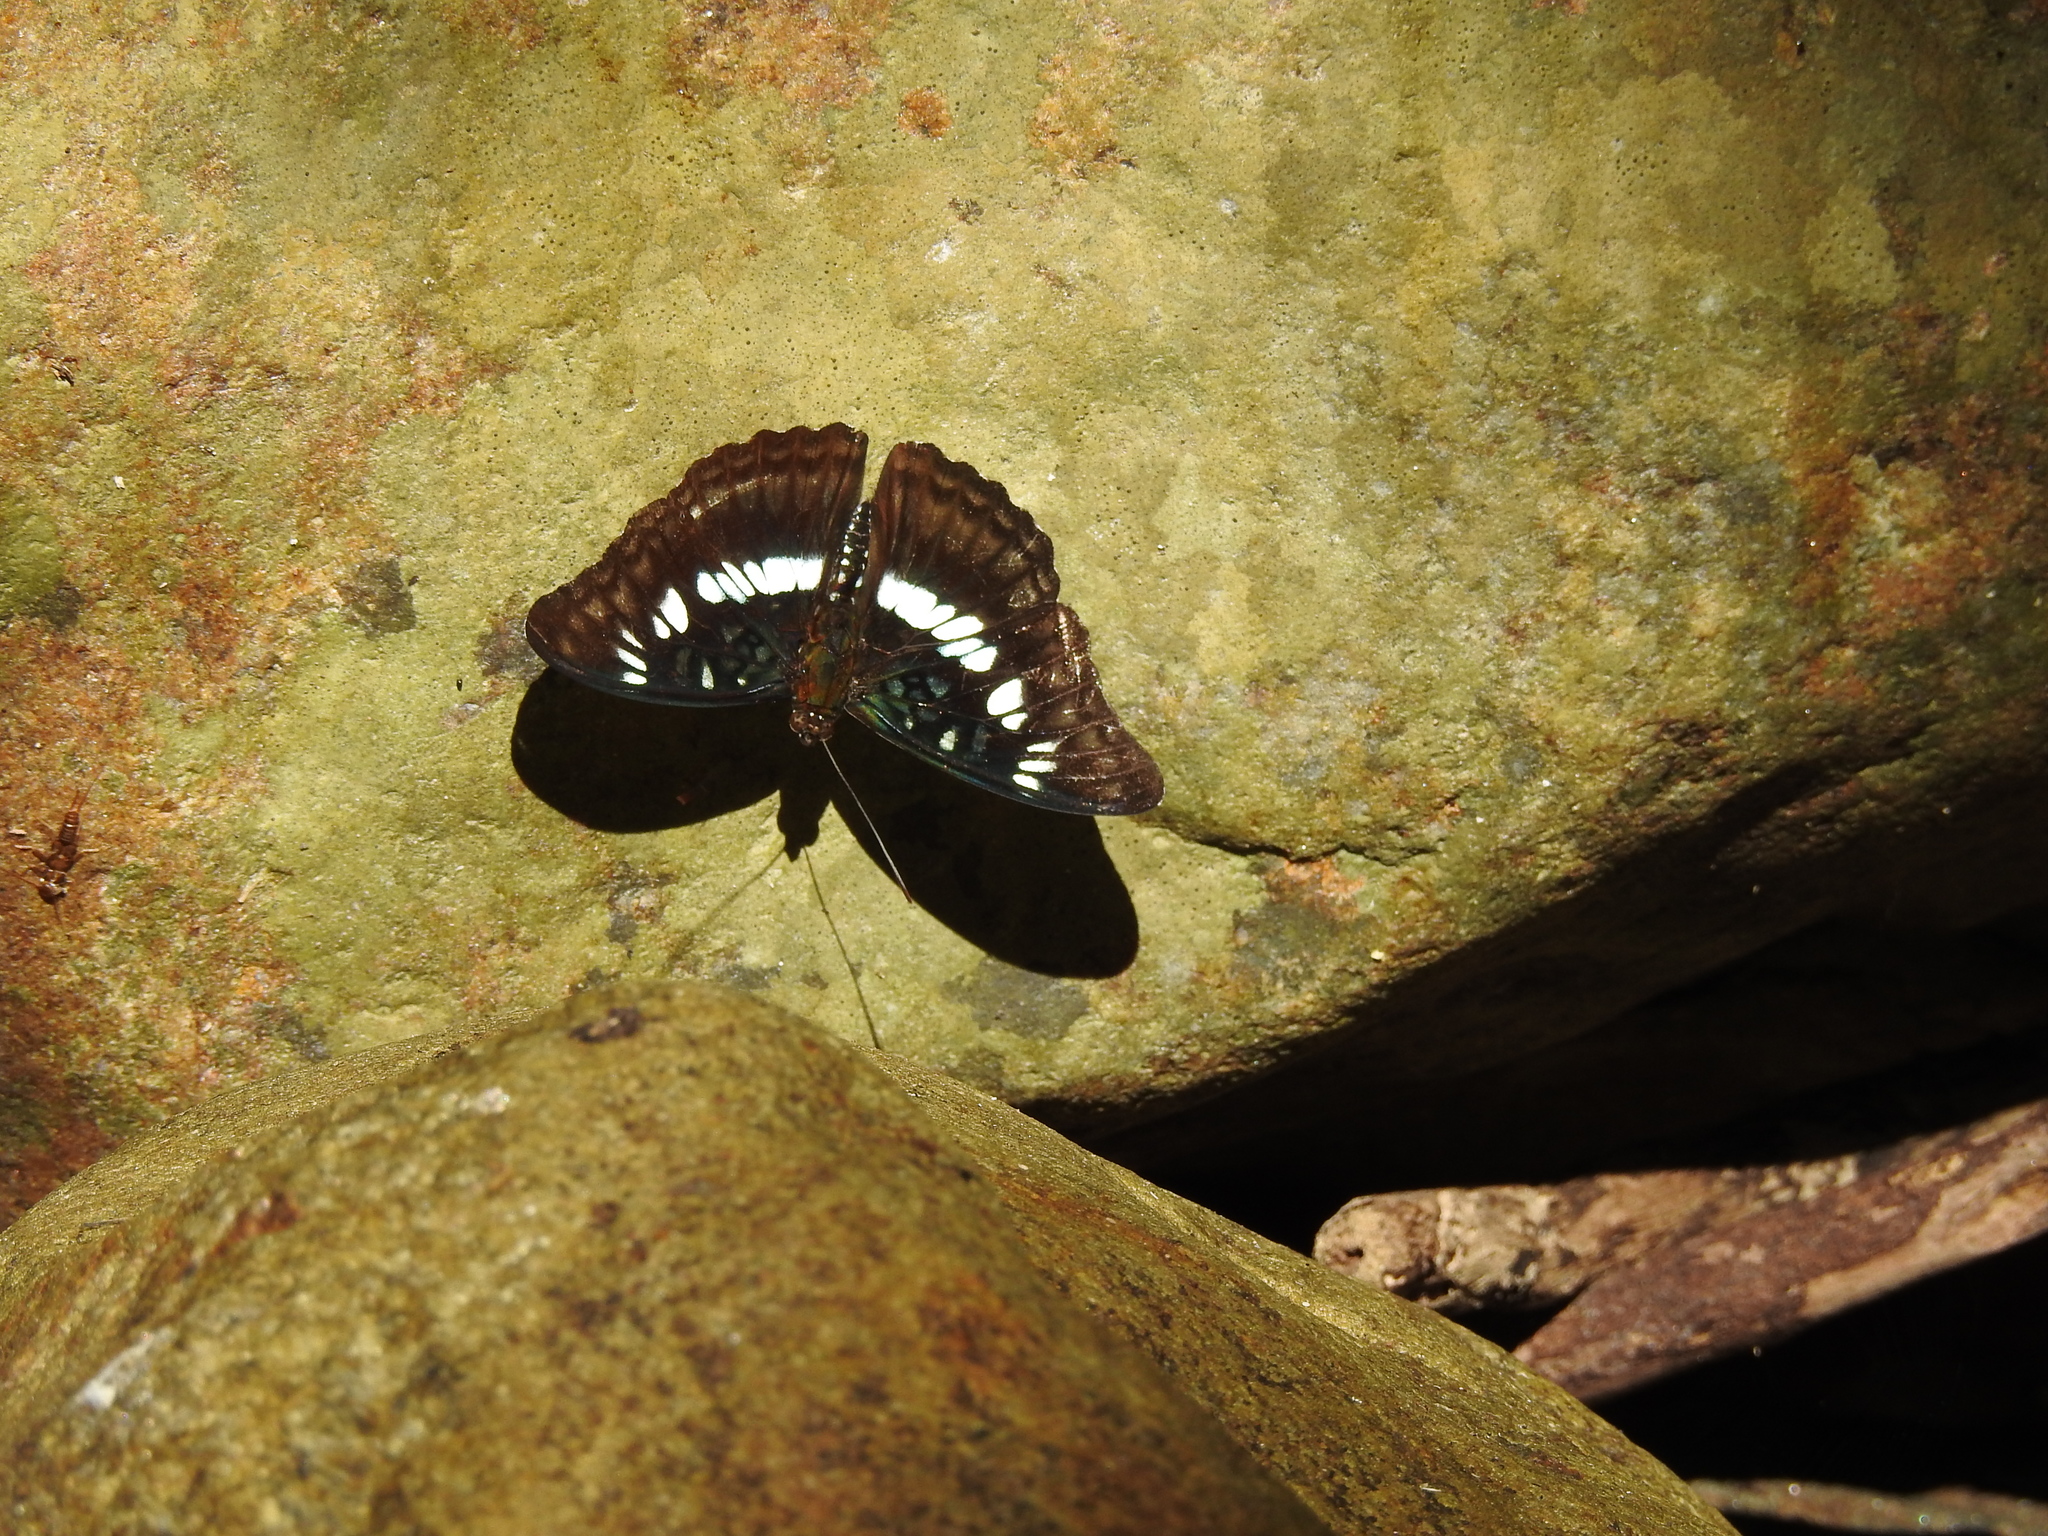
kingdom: Animalia
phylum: Arthropoda
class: Insecta
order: Lepidoptera
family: Nymphalidae
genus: Parathyma
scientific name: Parathyma ranga
